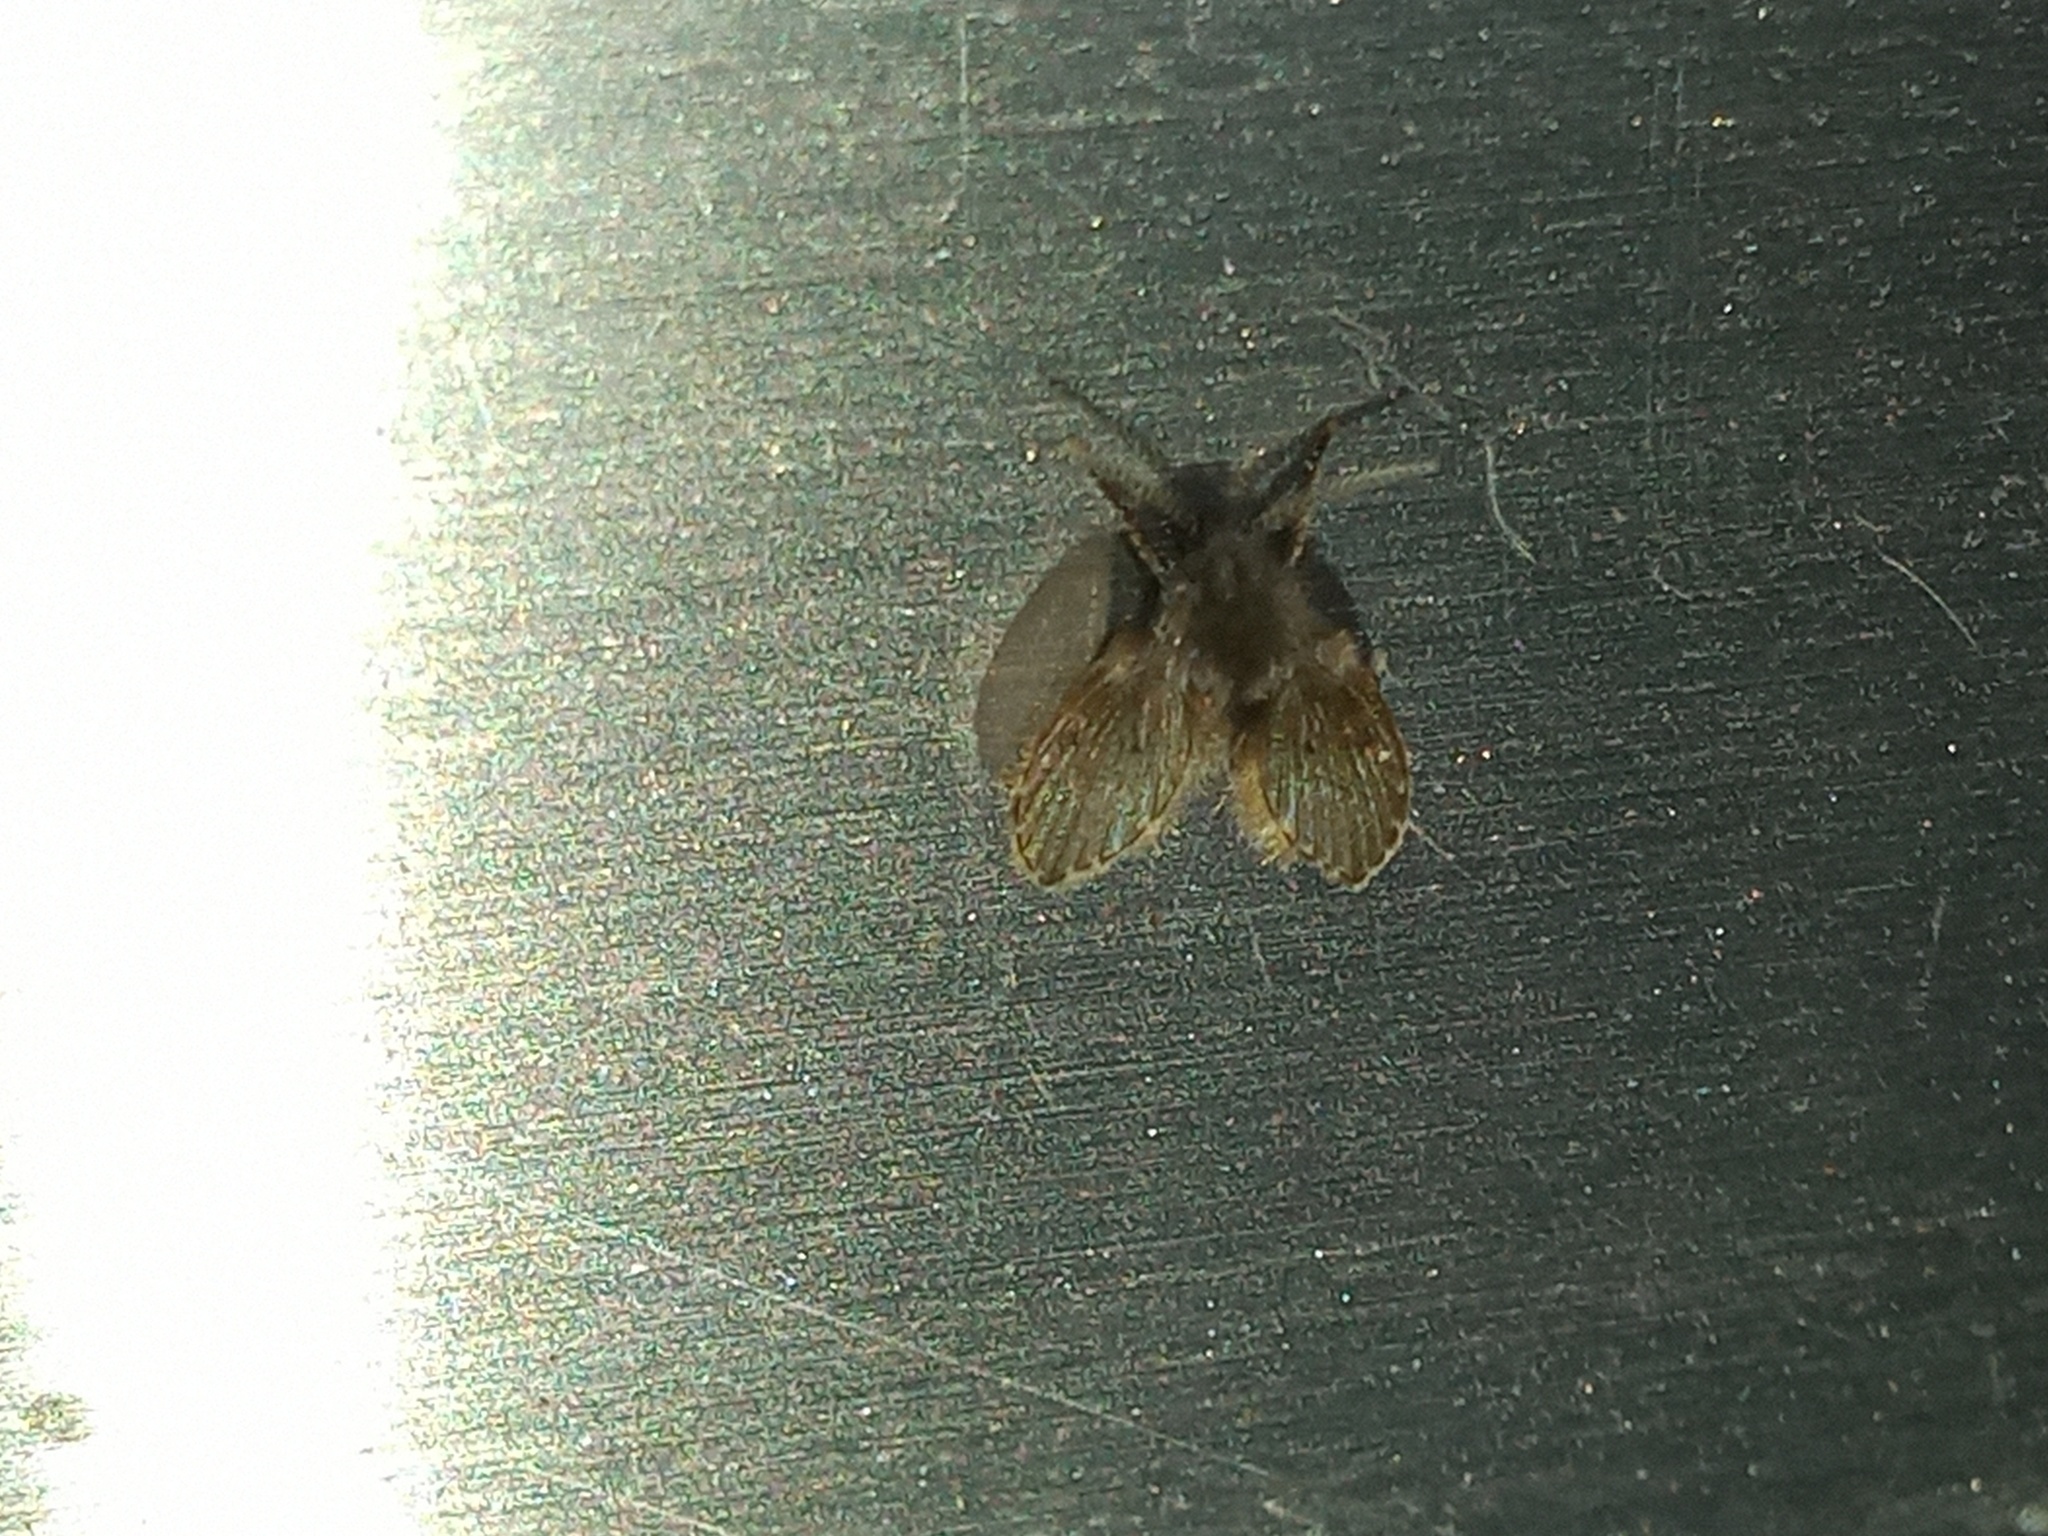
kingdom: Animalia
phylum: Arthropoda
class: Insecta
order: Diptera
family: Psychodidae
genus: Clogmia
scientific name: Clogmia albipunctatus
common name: White-spotted moth fly
